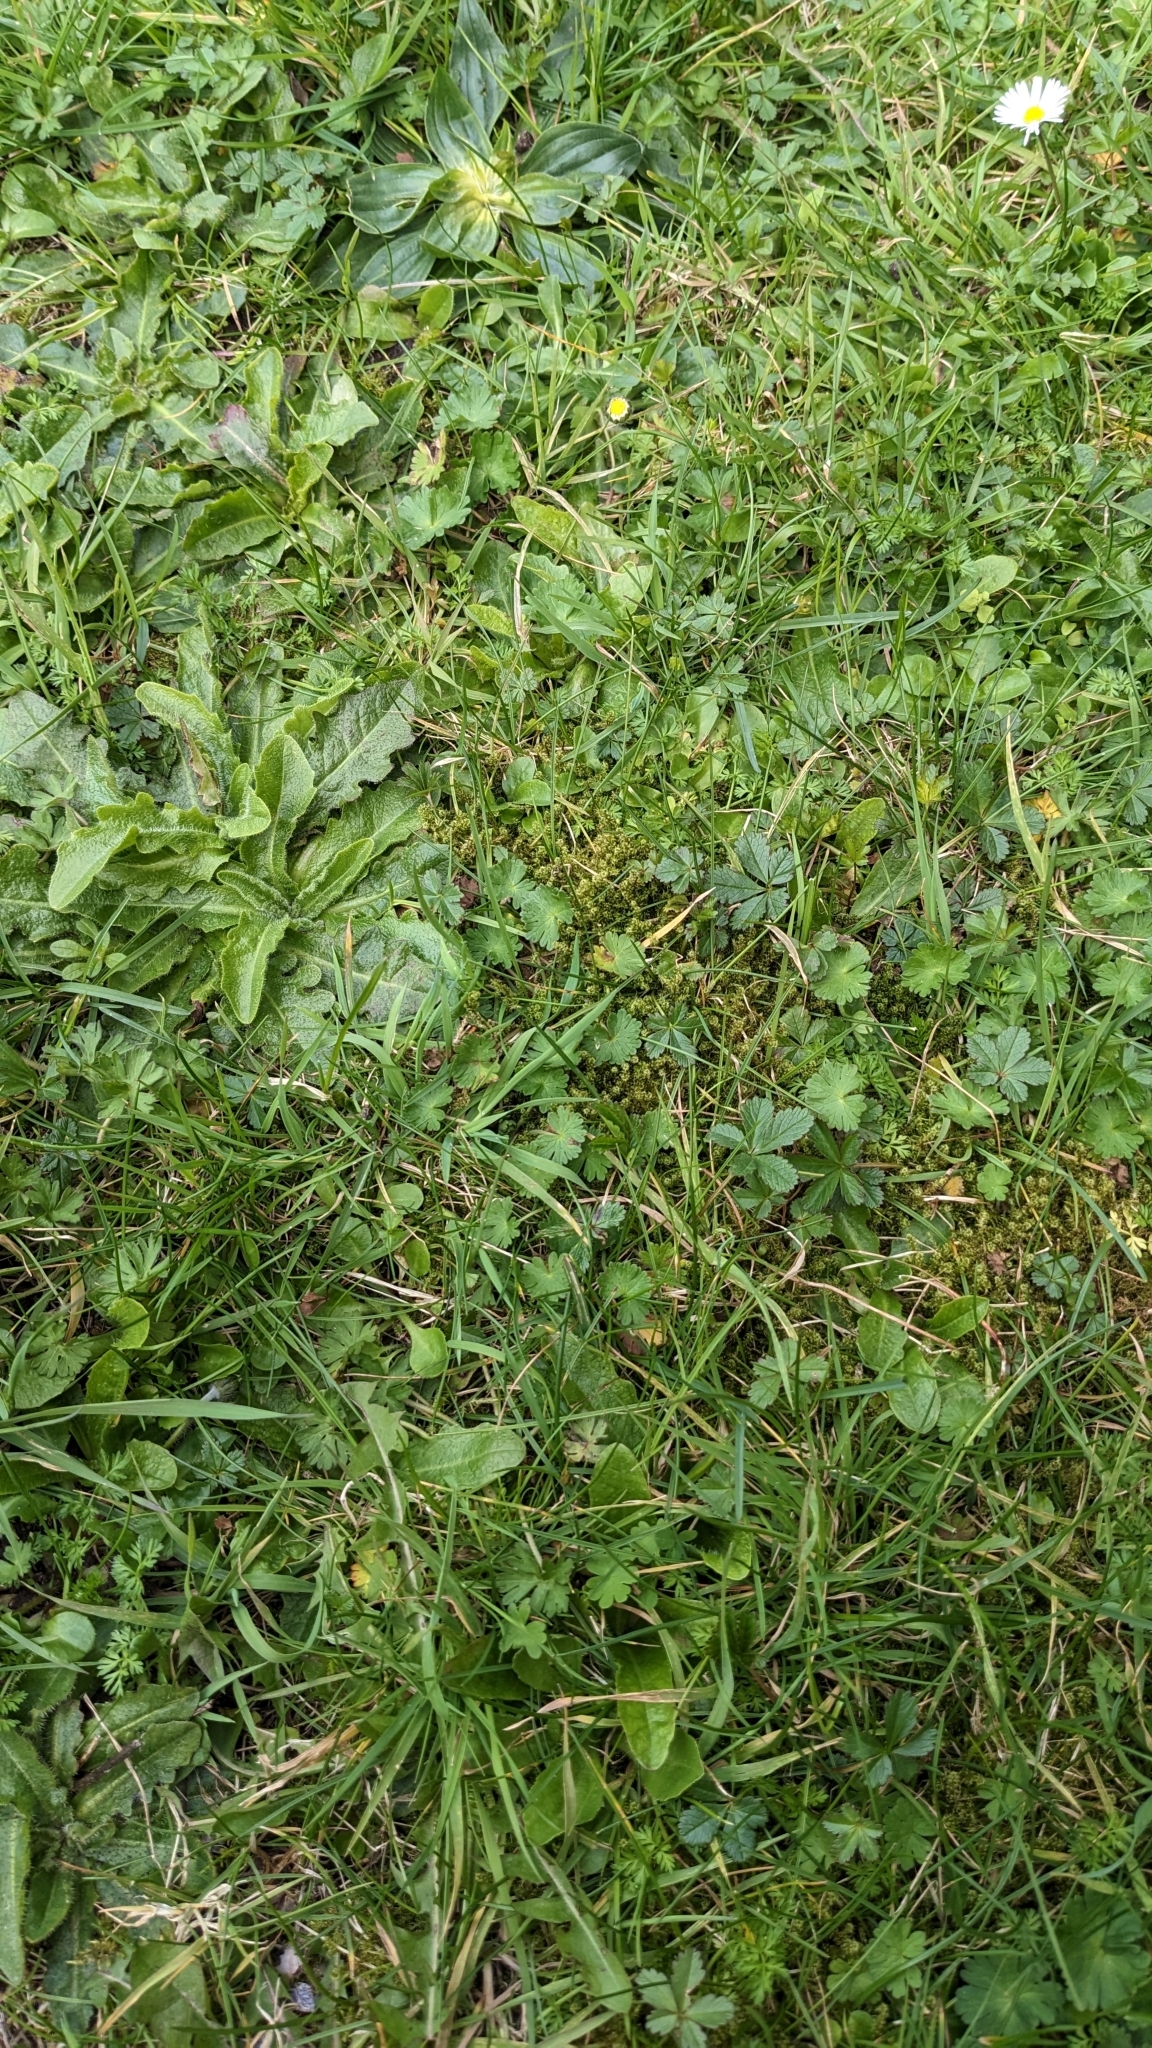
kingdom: Plantae
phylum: Bryophyta
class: Bryopsida
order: Hypnales
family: Hylocomiaceae
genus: Rhytidiadelphus
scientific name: Rhytidiadelphus squarrosus
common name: Springy turf-moss
